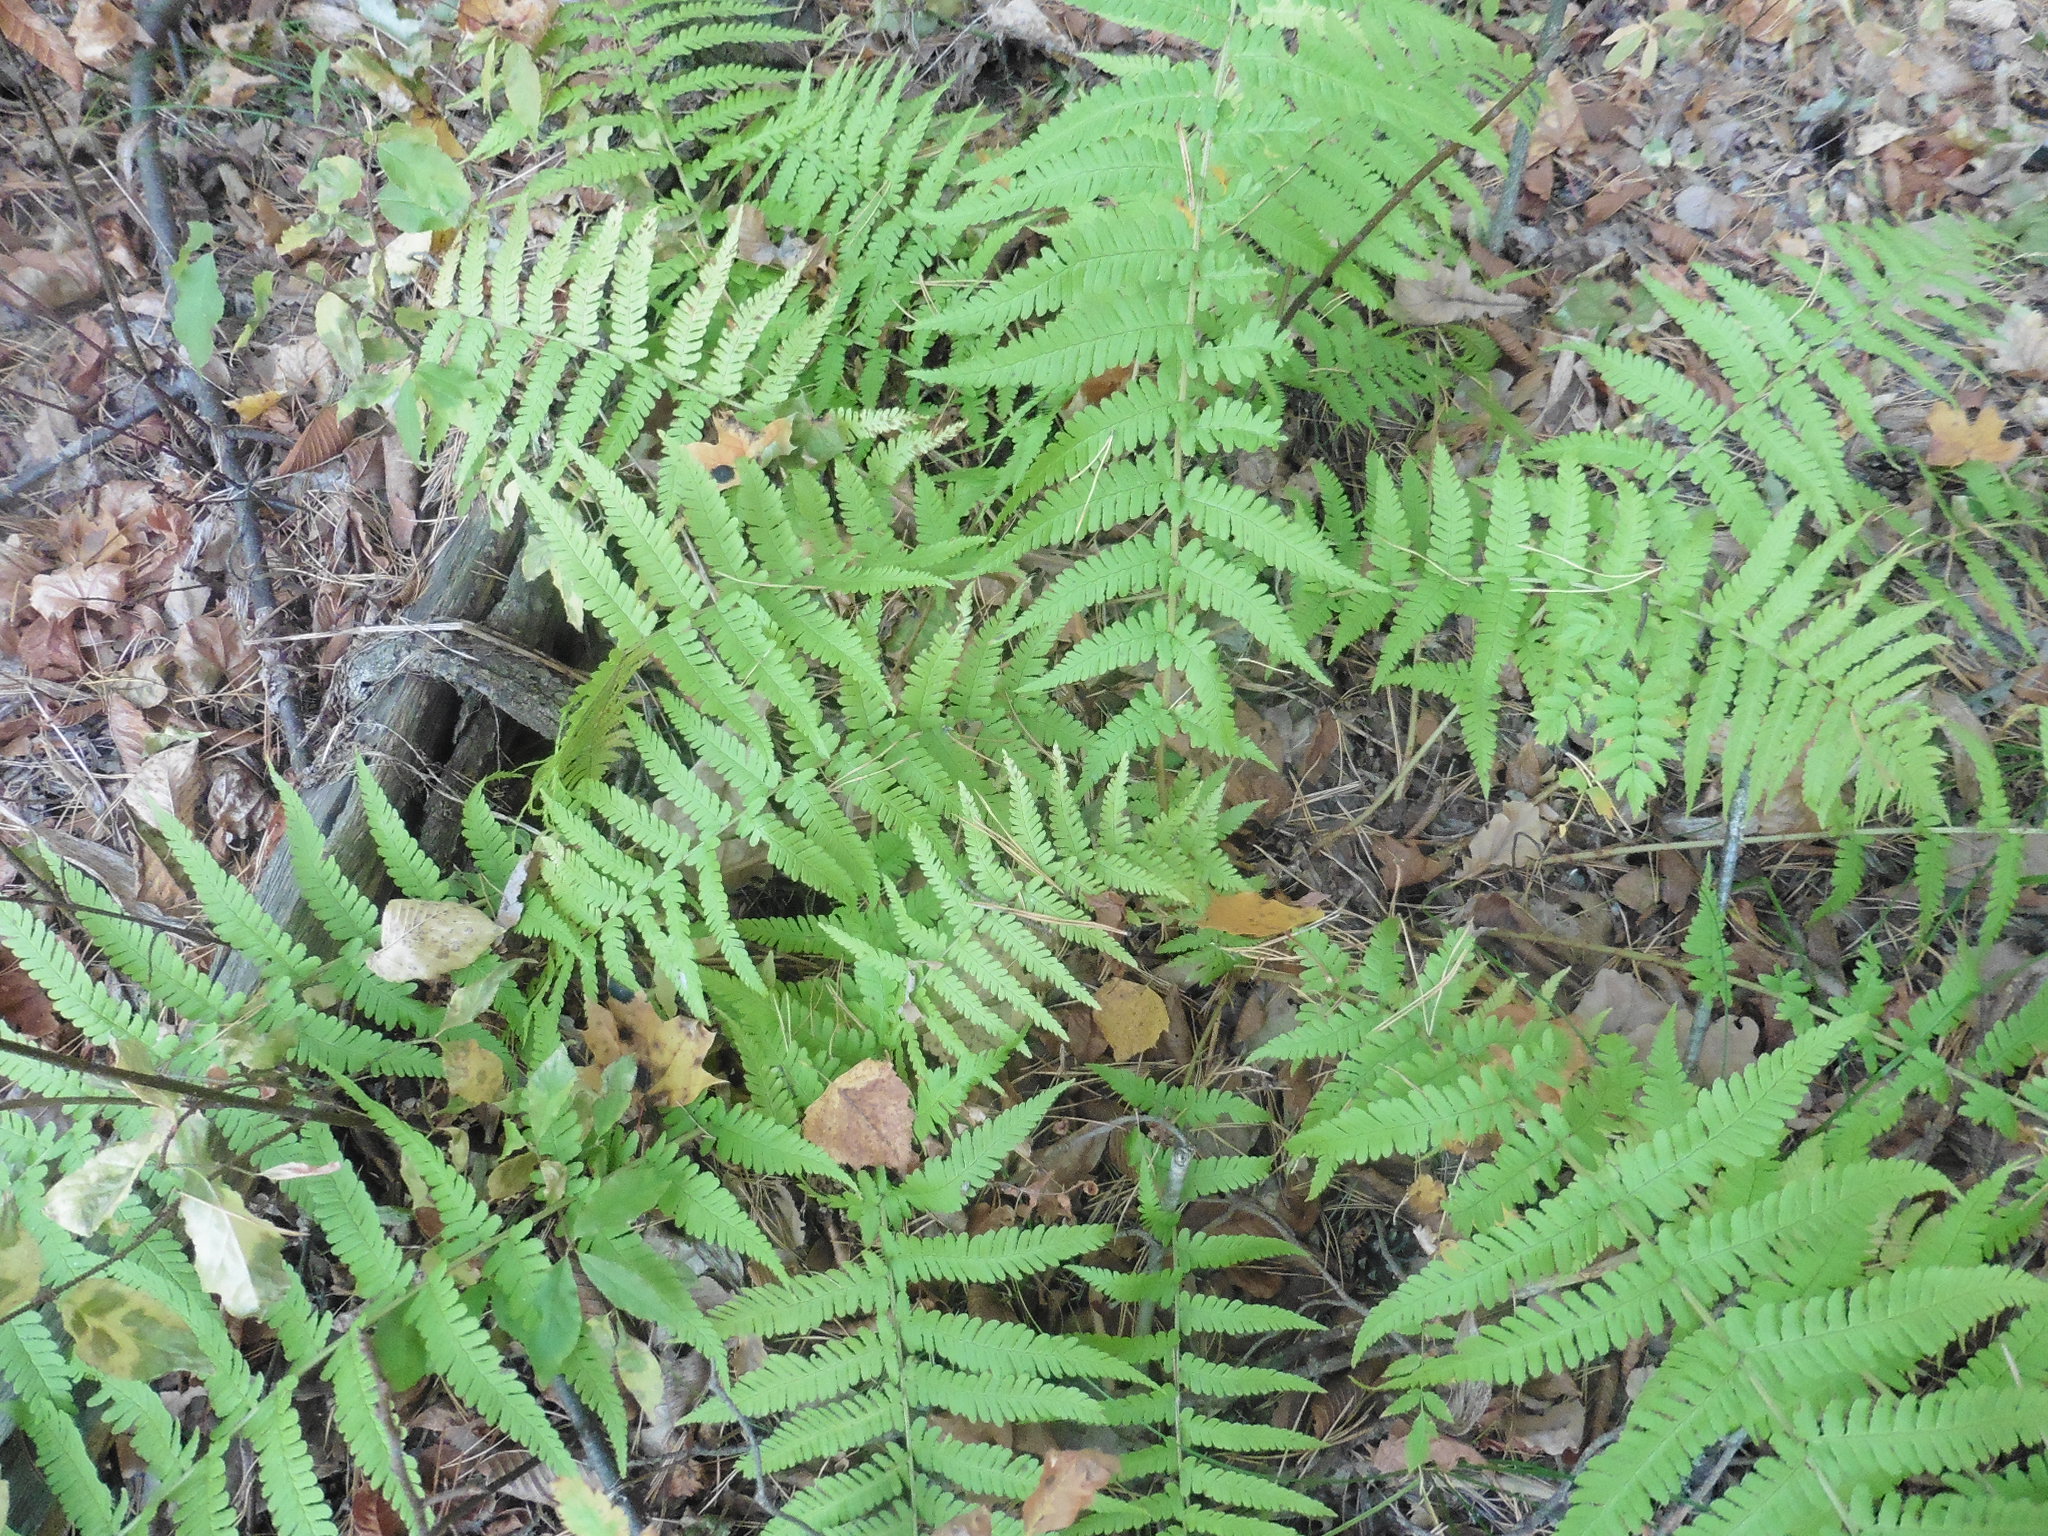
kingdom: Plantae
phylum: Tracheophyta
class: Polypodiopsida
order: Polypodiales
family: Dryopteridaceae
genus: Dryopteris
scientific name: Dryopteris filix-mas
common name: Male fern
